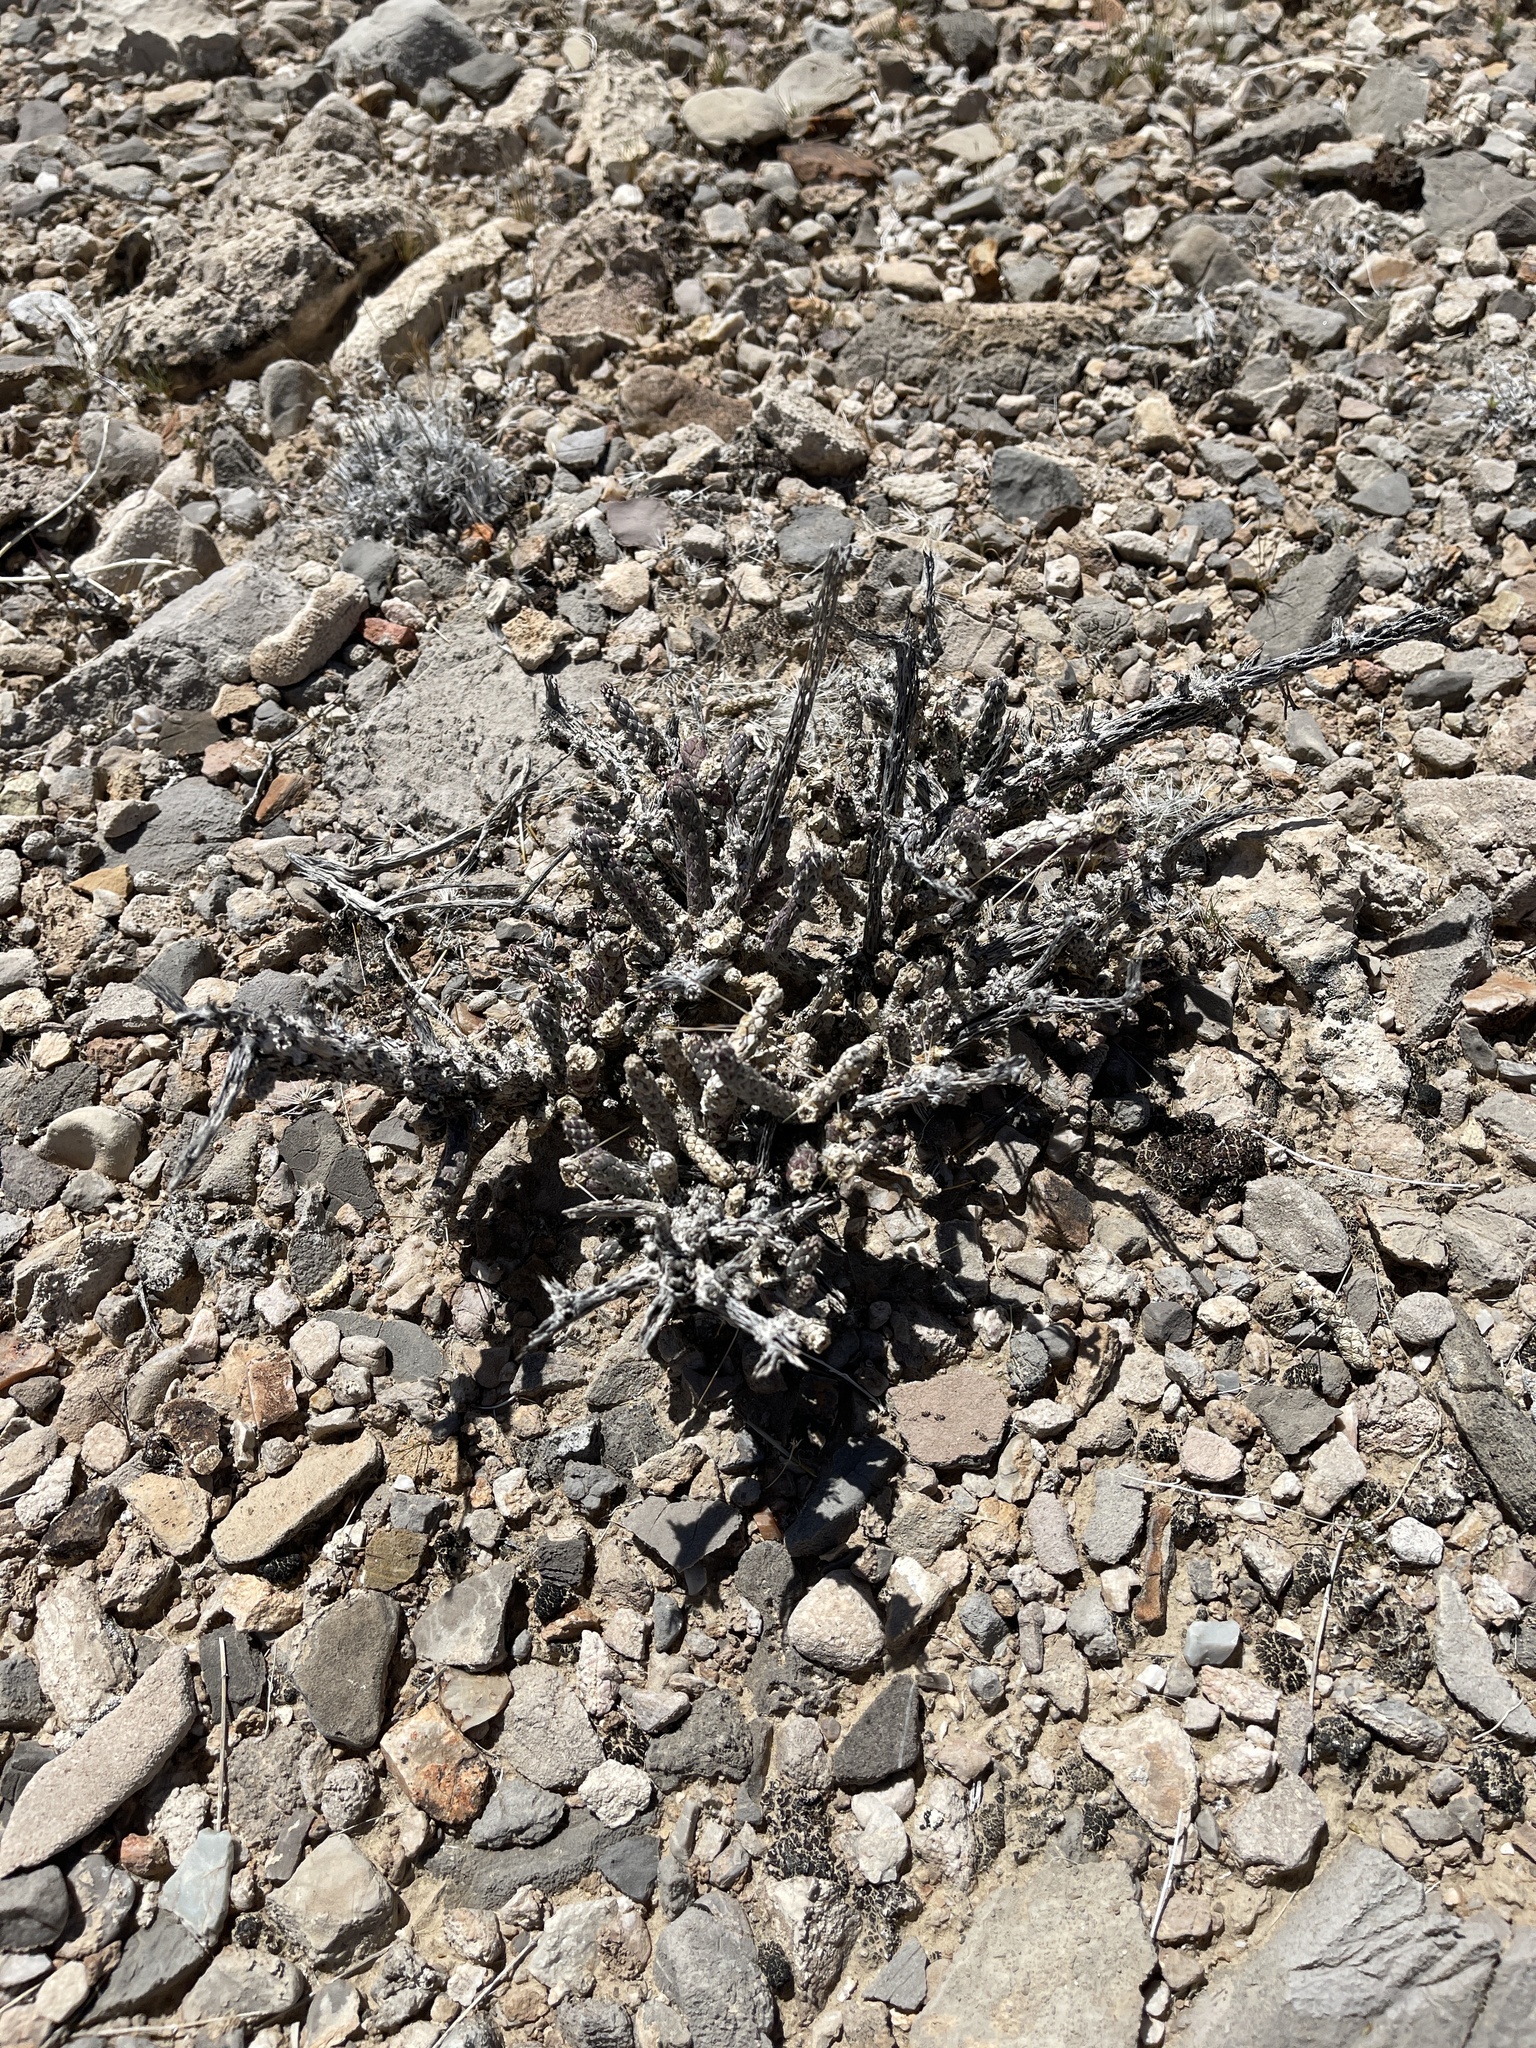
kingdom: Plantae
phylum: Tracheophyta
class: Magnoliopsida
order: Caryophyllales
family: Cactaceae
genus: Cylindropuntia
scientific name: Cylindropuntia ramosissima
